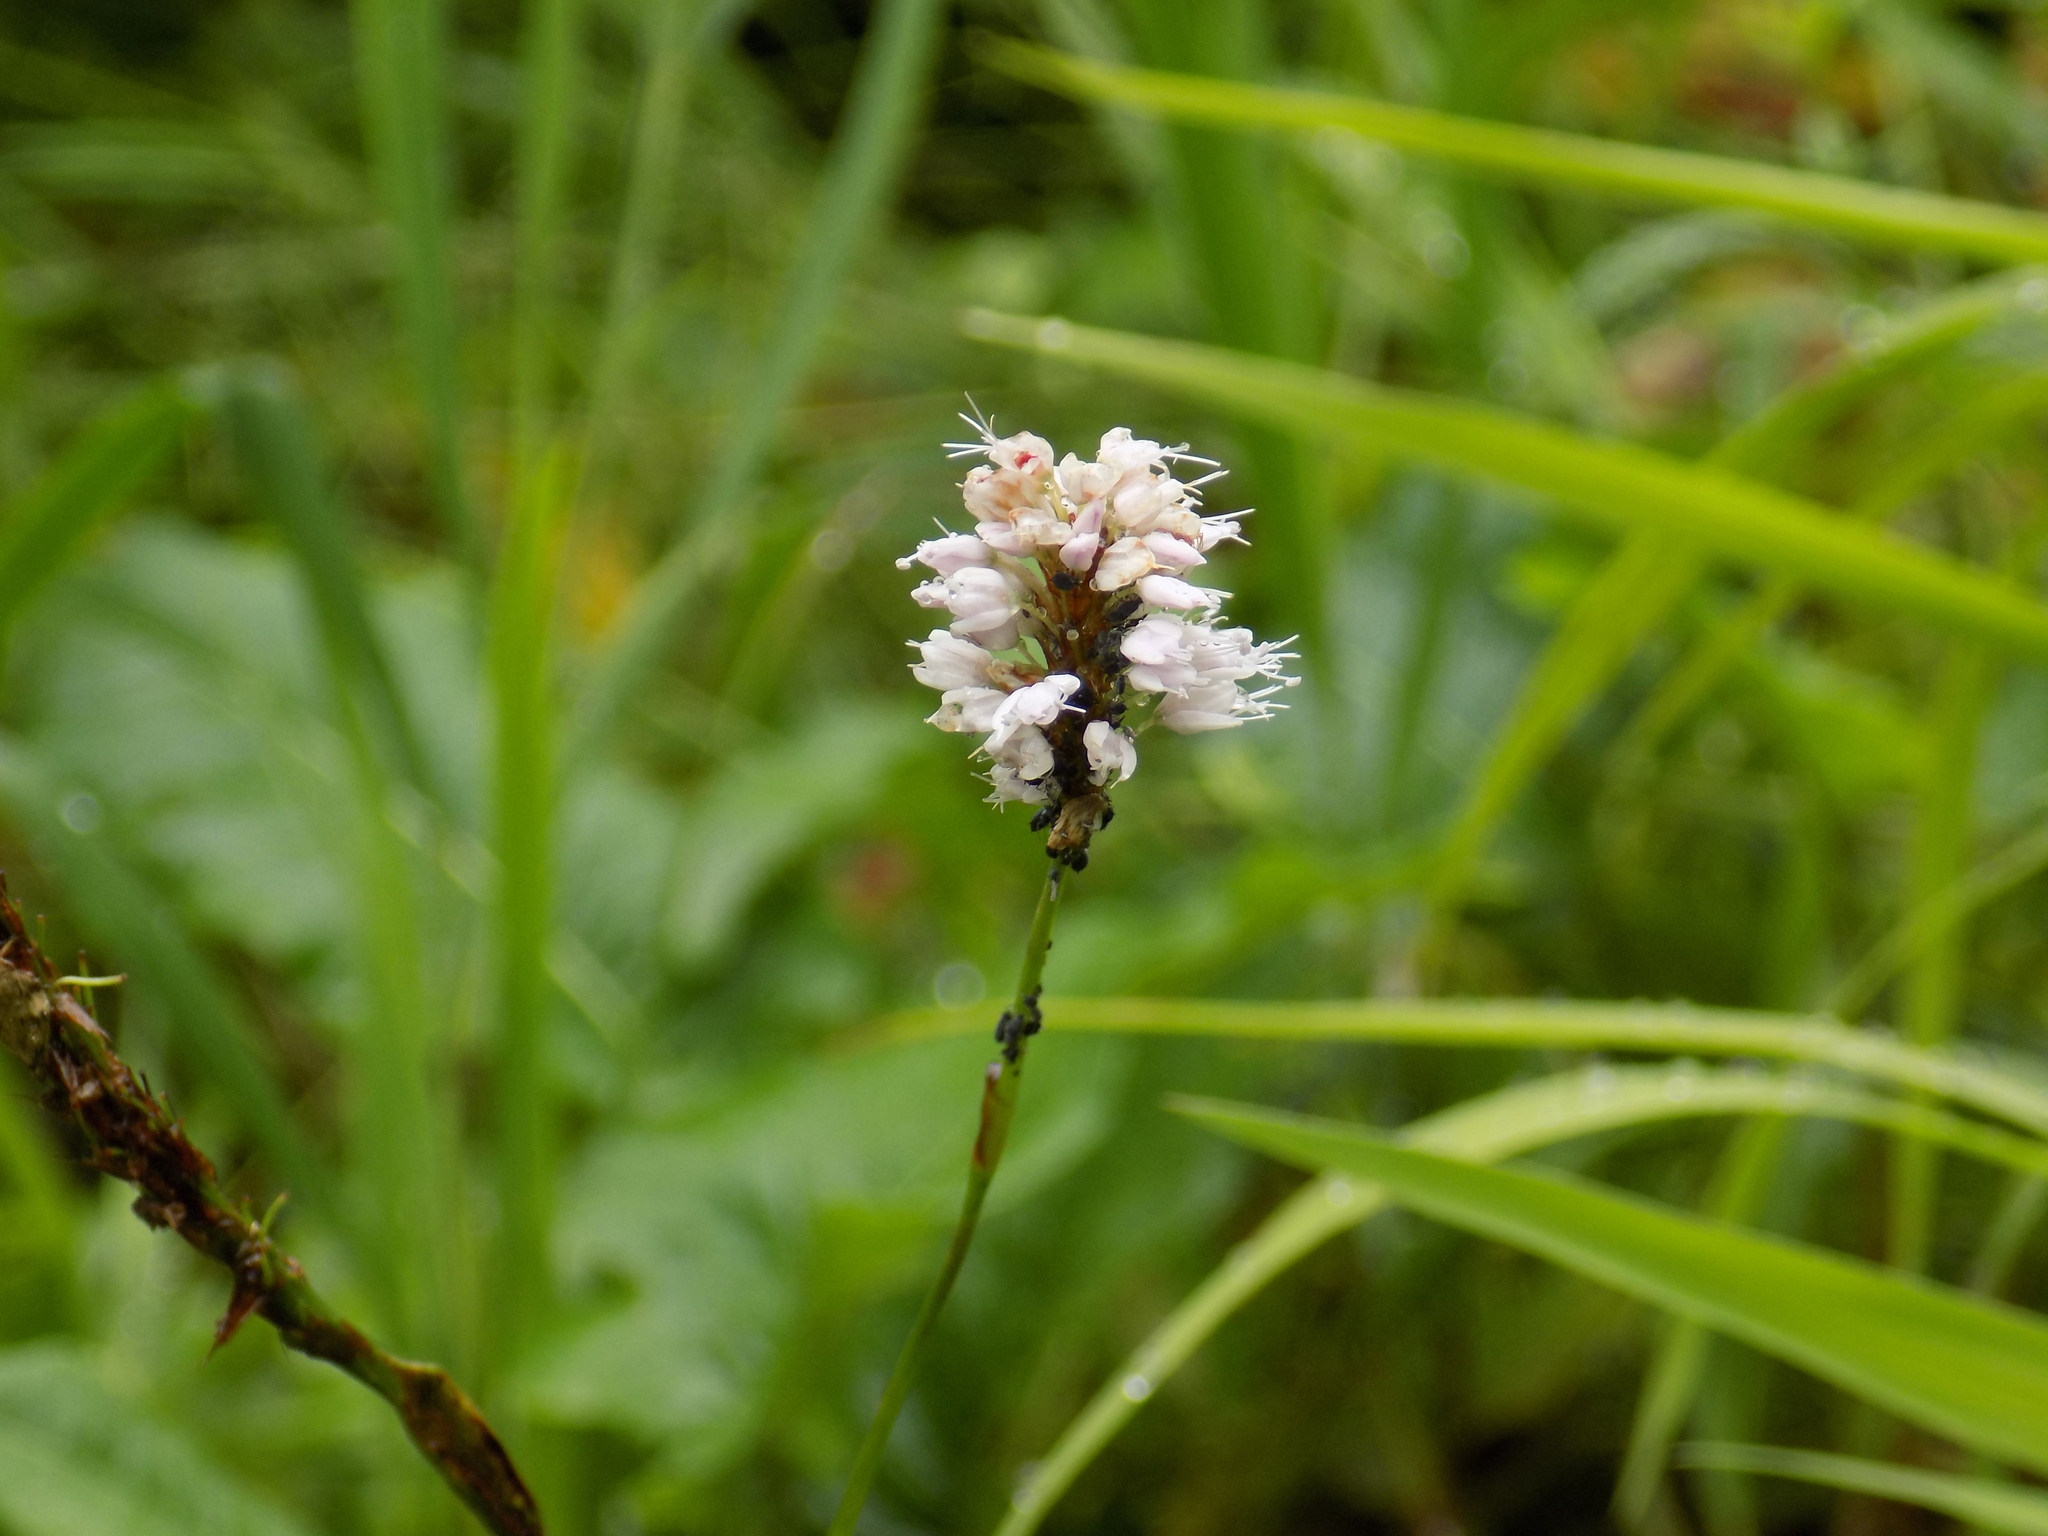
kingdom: Plantae
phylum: Tracheophyta
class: Magnoliopsida
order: Caryophyllales
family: Polygonaceae
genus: Bistorta
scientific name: Bistorta officinalis
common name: Common bistort
